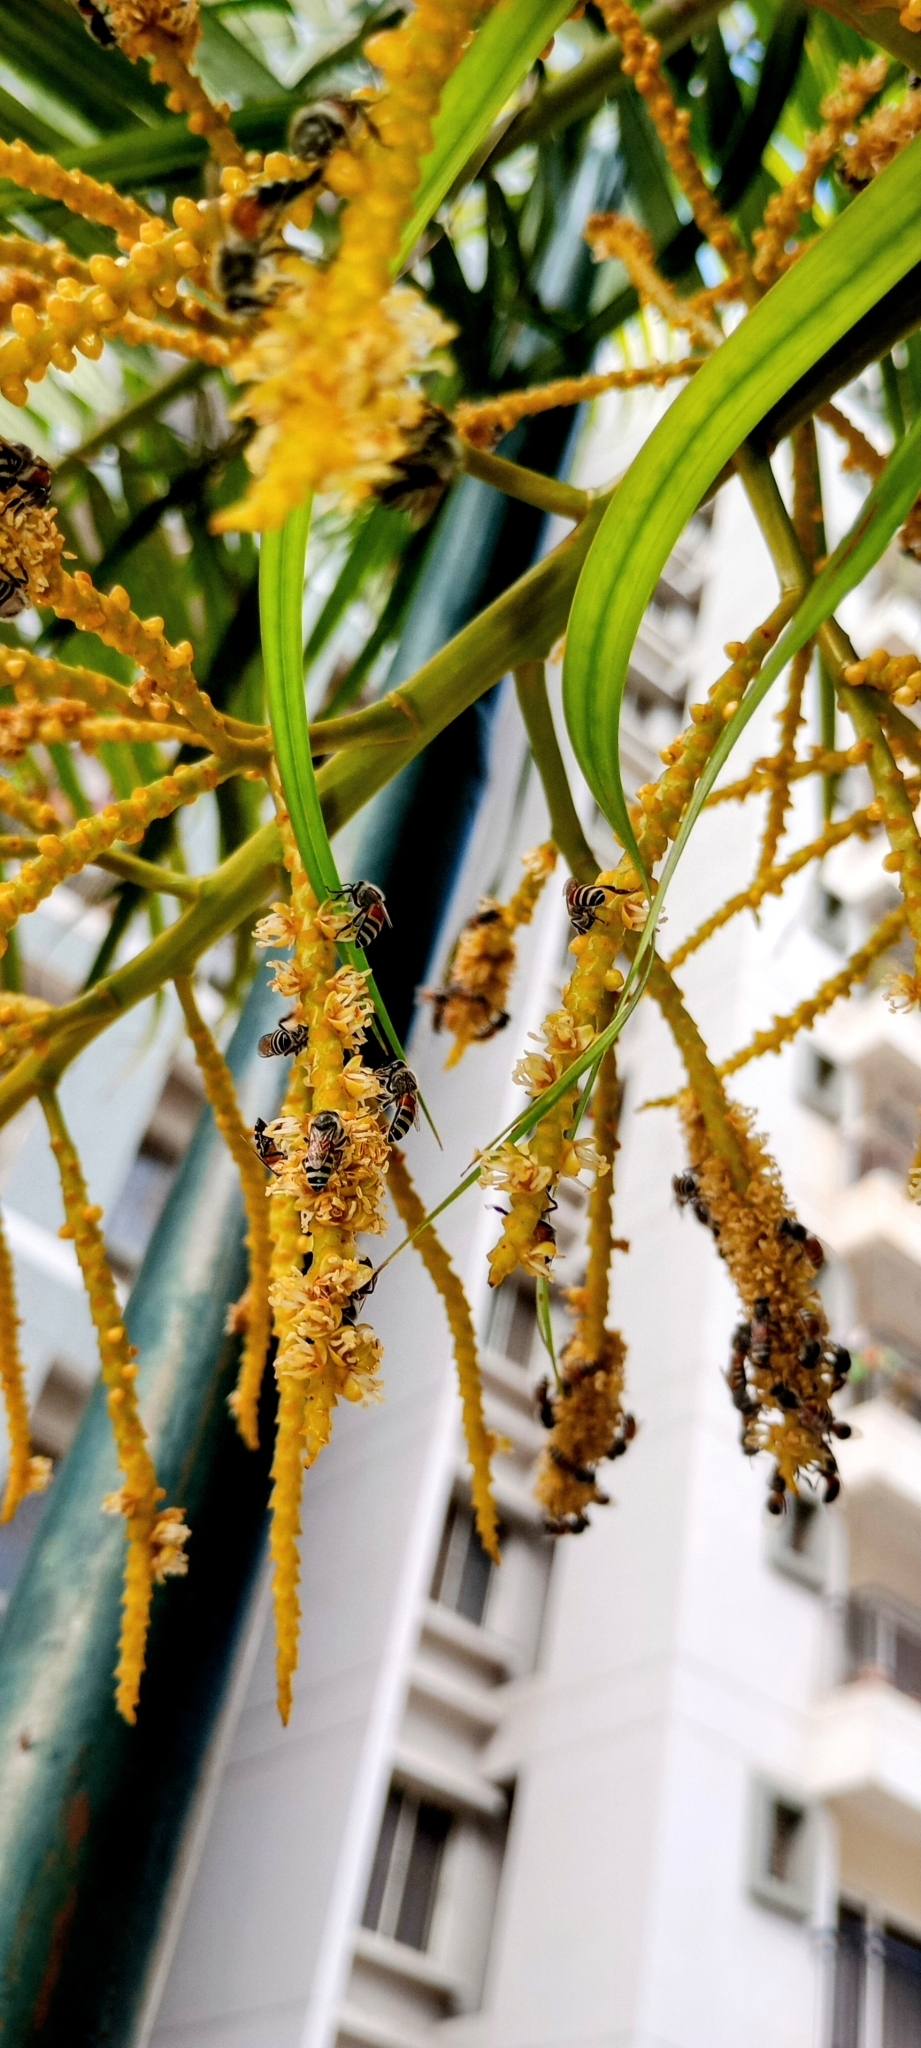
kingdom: Animalia
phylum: Arthropoda
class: Insecta
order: Hymenoptera
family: Apidae
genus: Apis
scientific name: Apis florea
